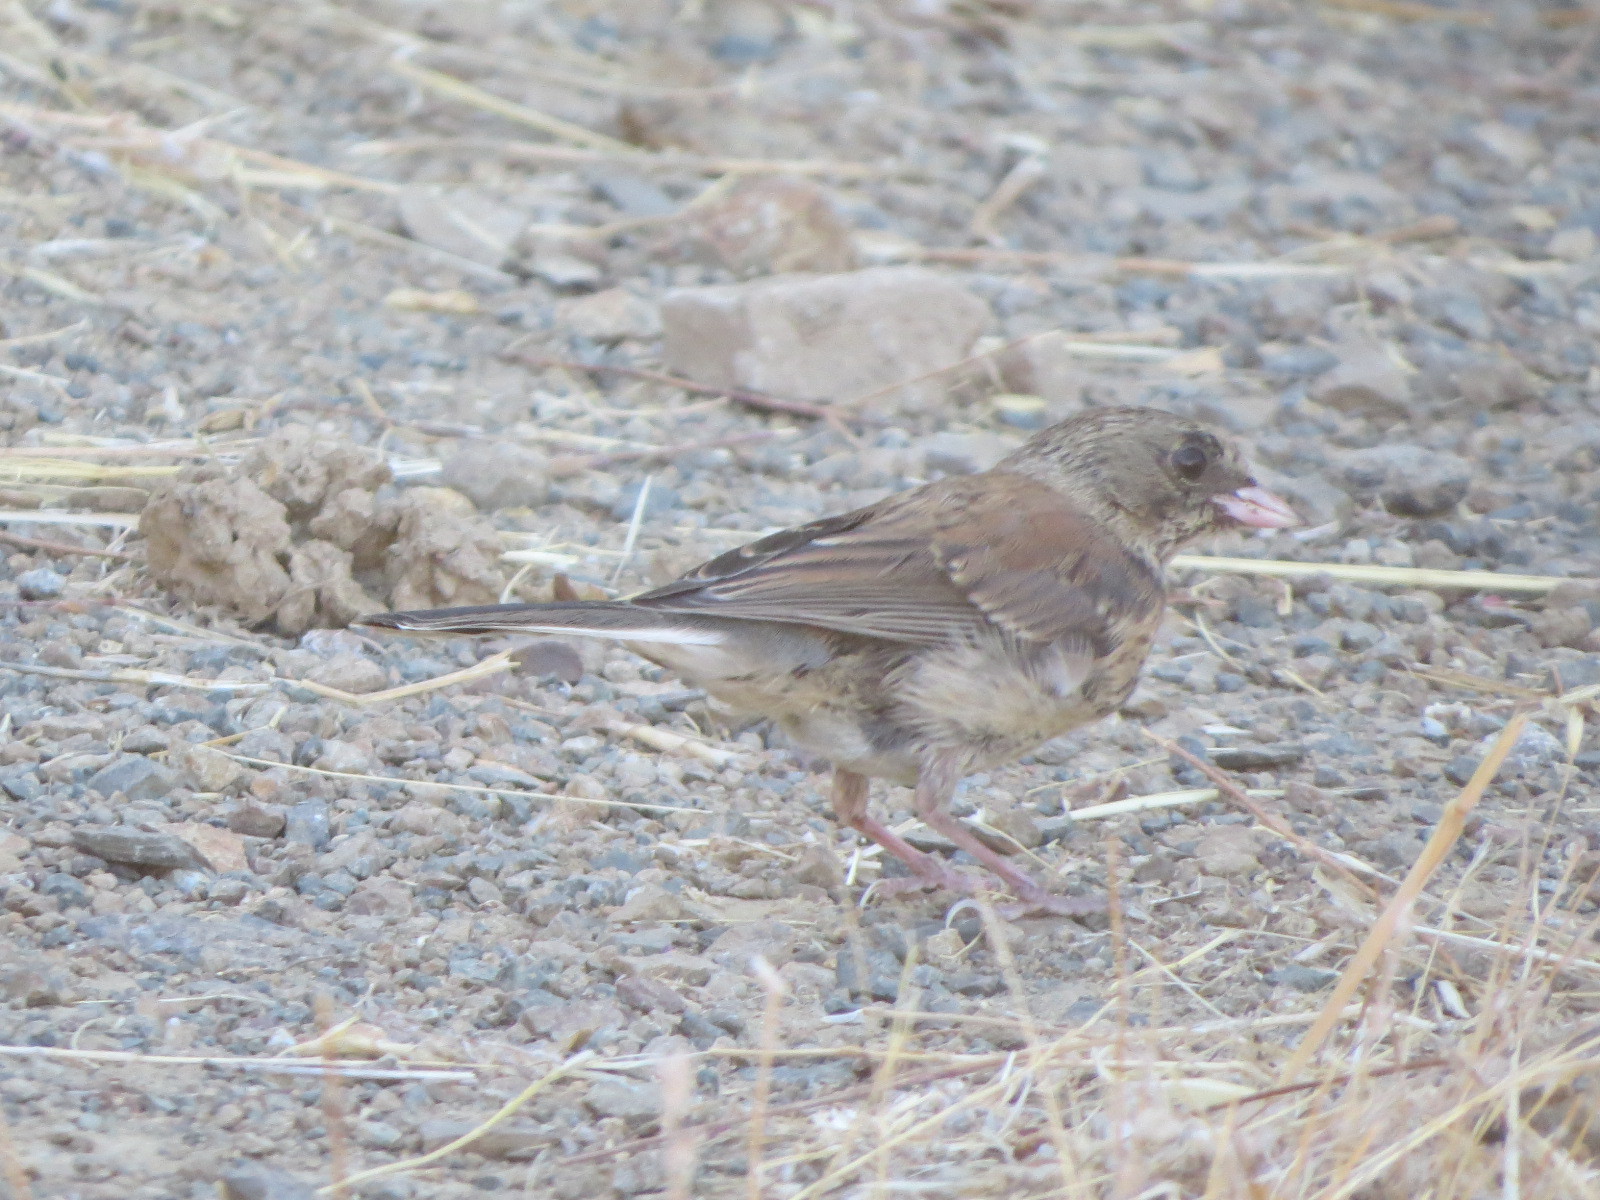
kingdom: Animalia
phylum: Chordata
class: Aves
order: Passeriformes
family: Passerellidae
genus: Junco
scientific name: Junco hyemalis
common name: Dark-eyed junco
